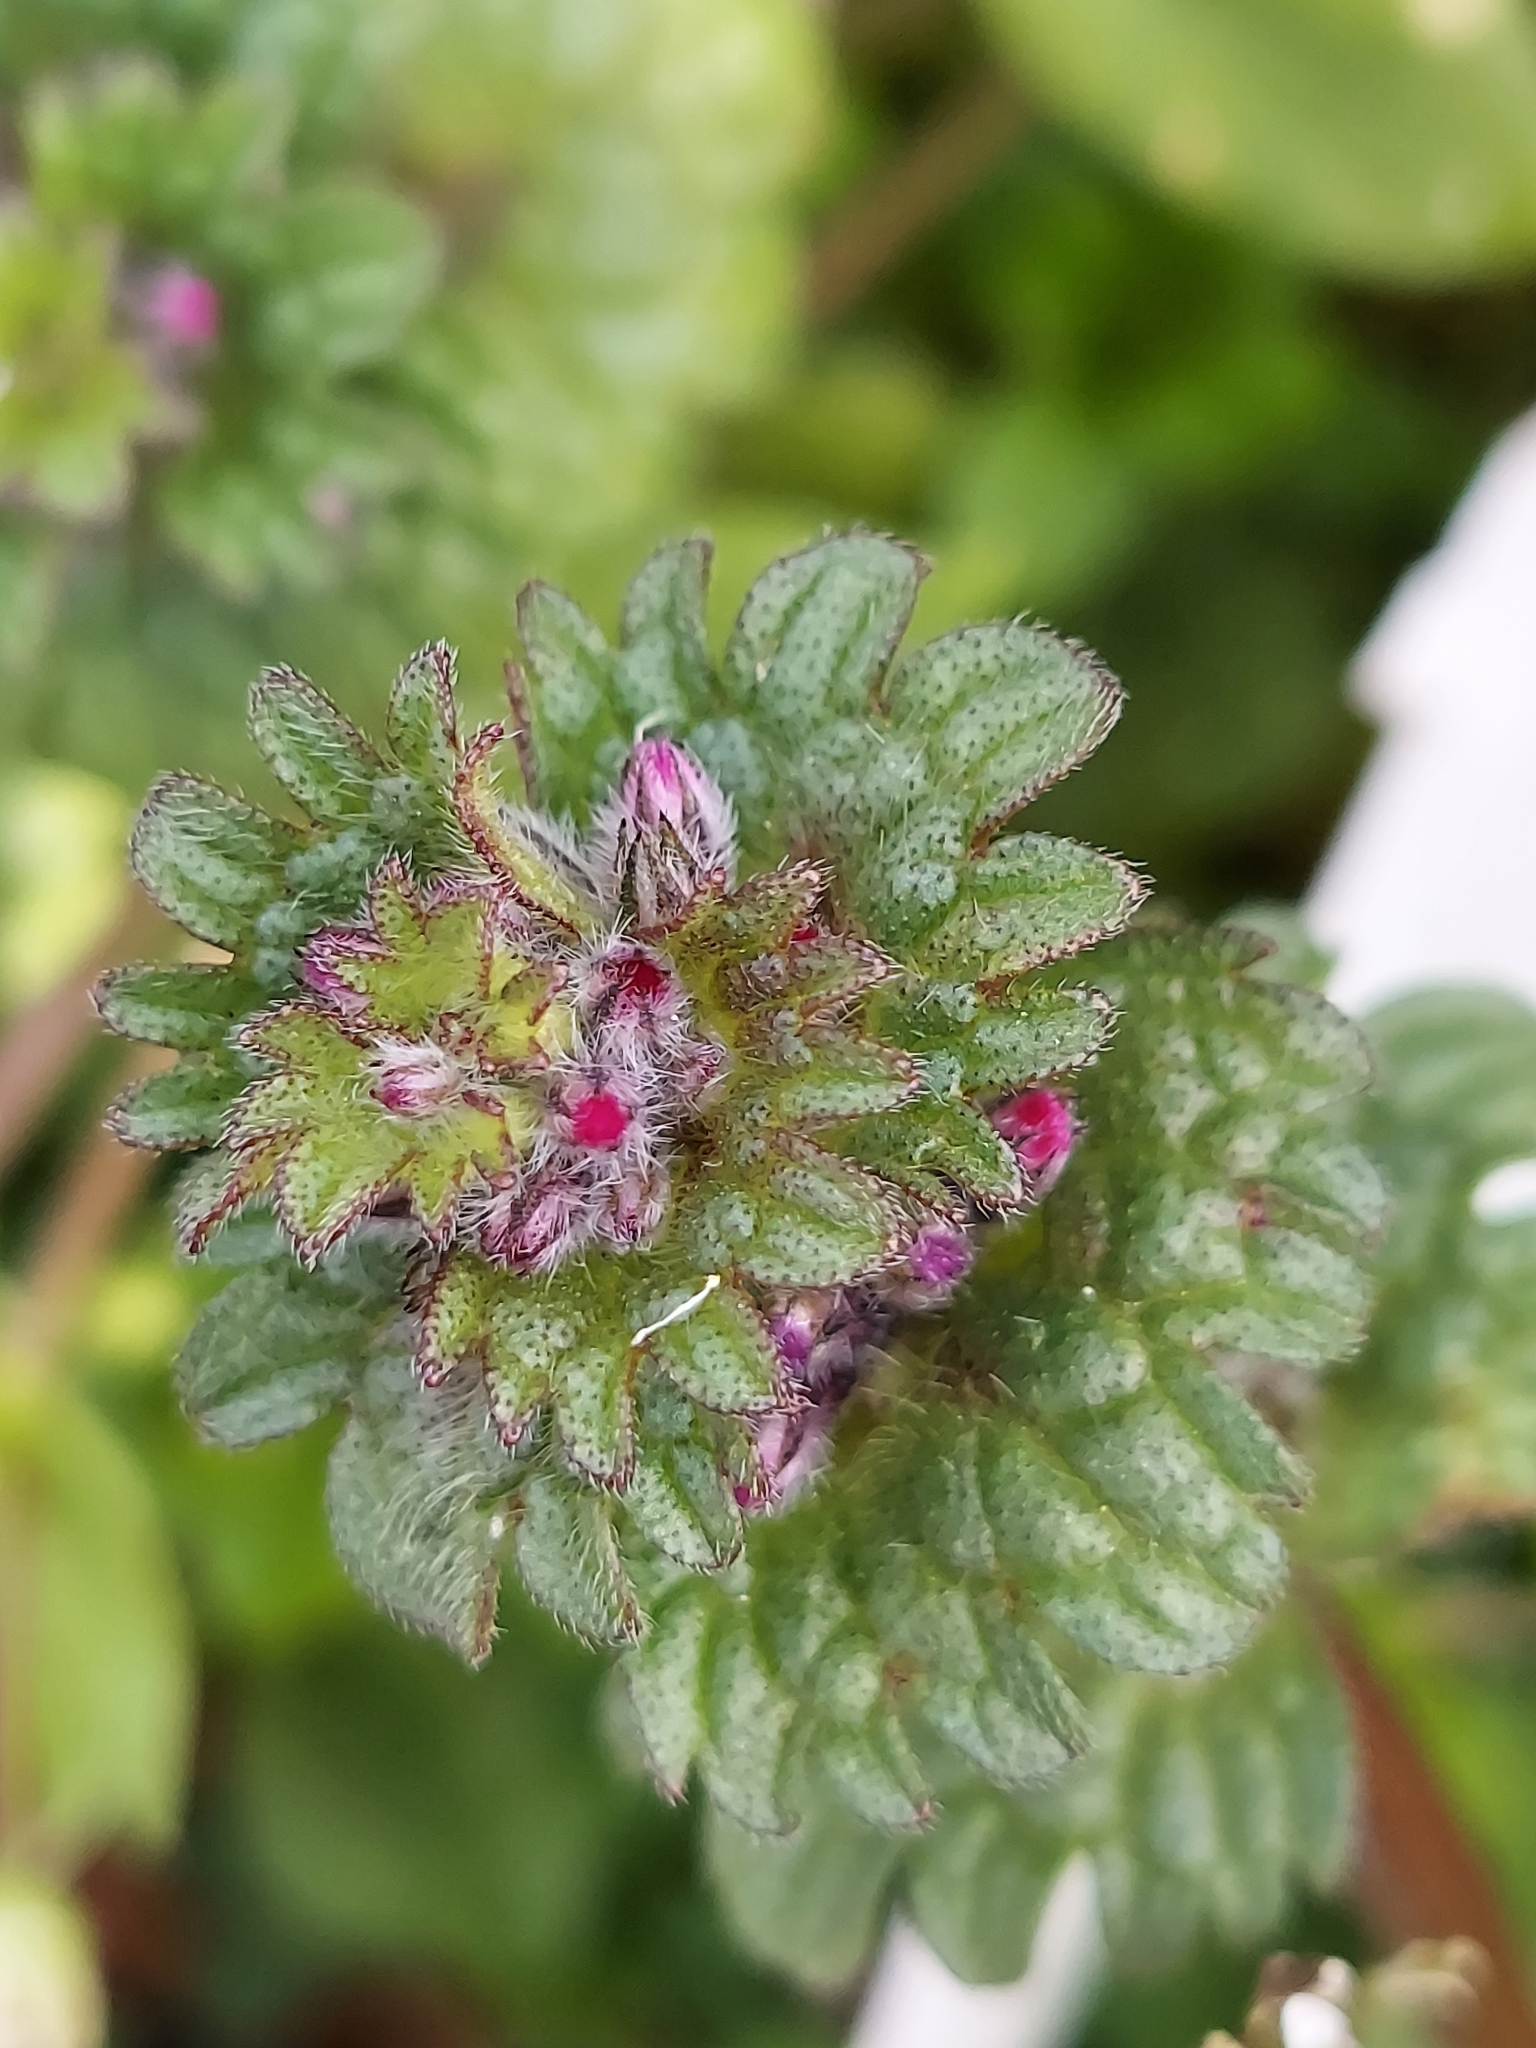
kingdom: Plantae
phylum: Tracheophyta
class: Magnoliopsida
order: Lamiales
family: Lamiaceae
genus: Lamium
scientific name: Lamium amplexicaule
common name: Henbit dead-nettle
